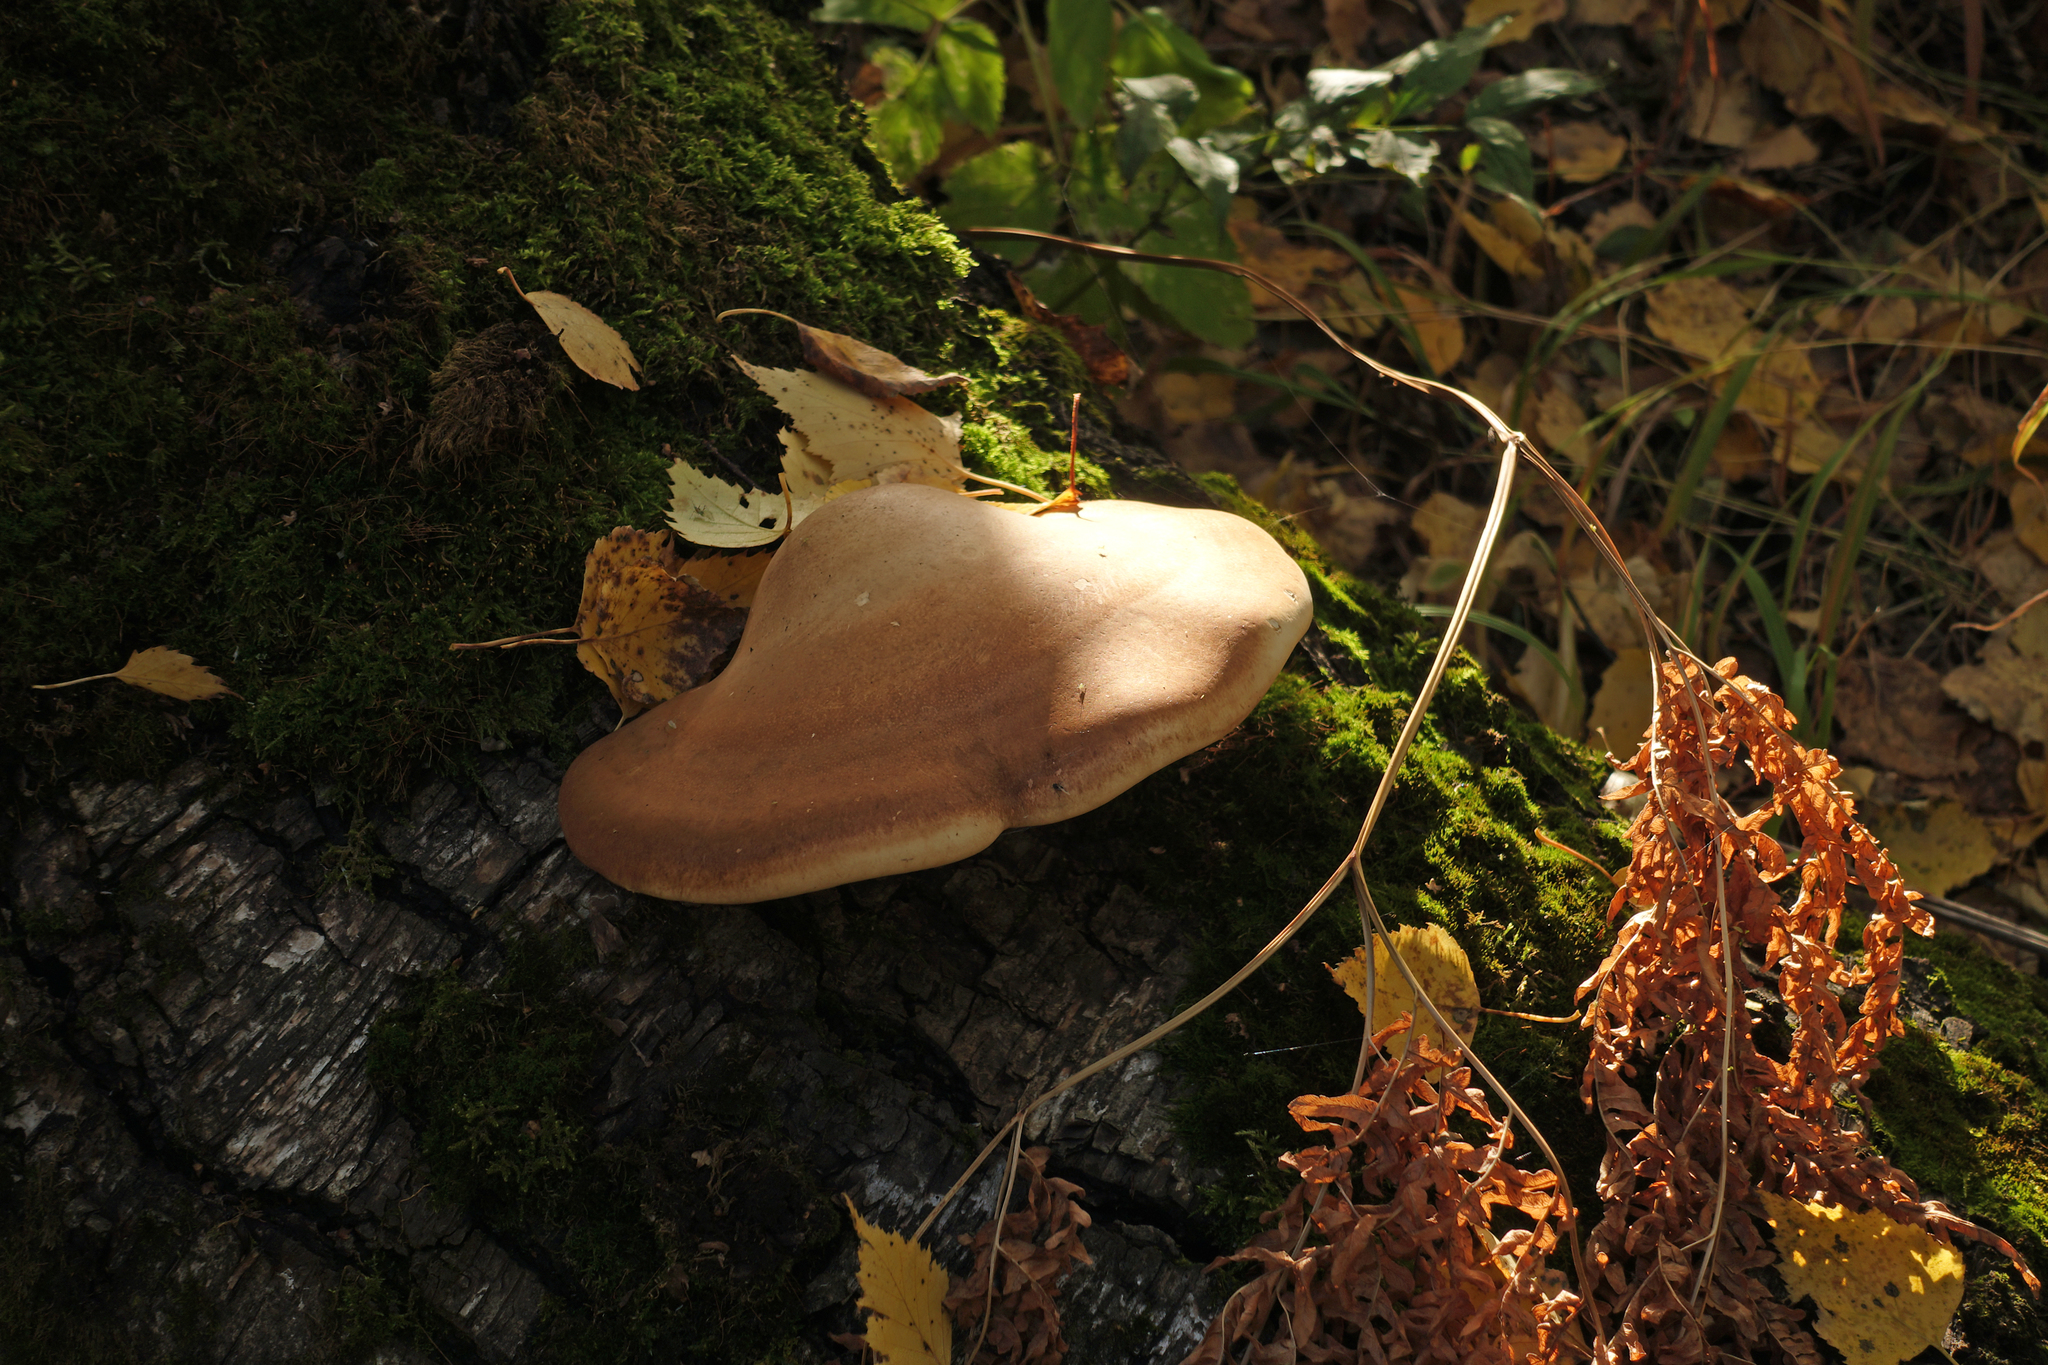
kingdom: Fungi
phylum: Basidiomycota
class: Agaricomycetes
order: Polyporales
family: Fomitopsidaceae
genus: Fomitopsis
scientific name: Fomitopsis betulina
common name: Birch polypore
